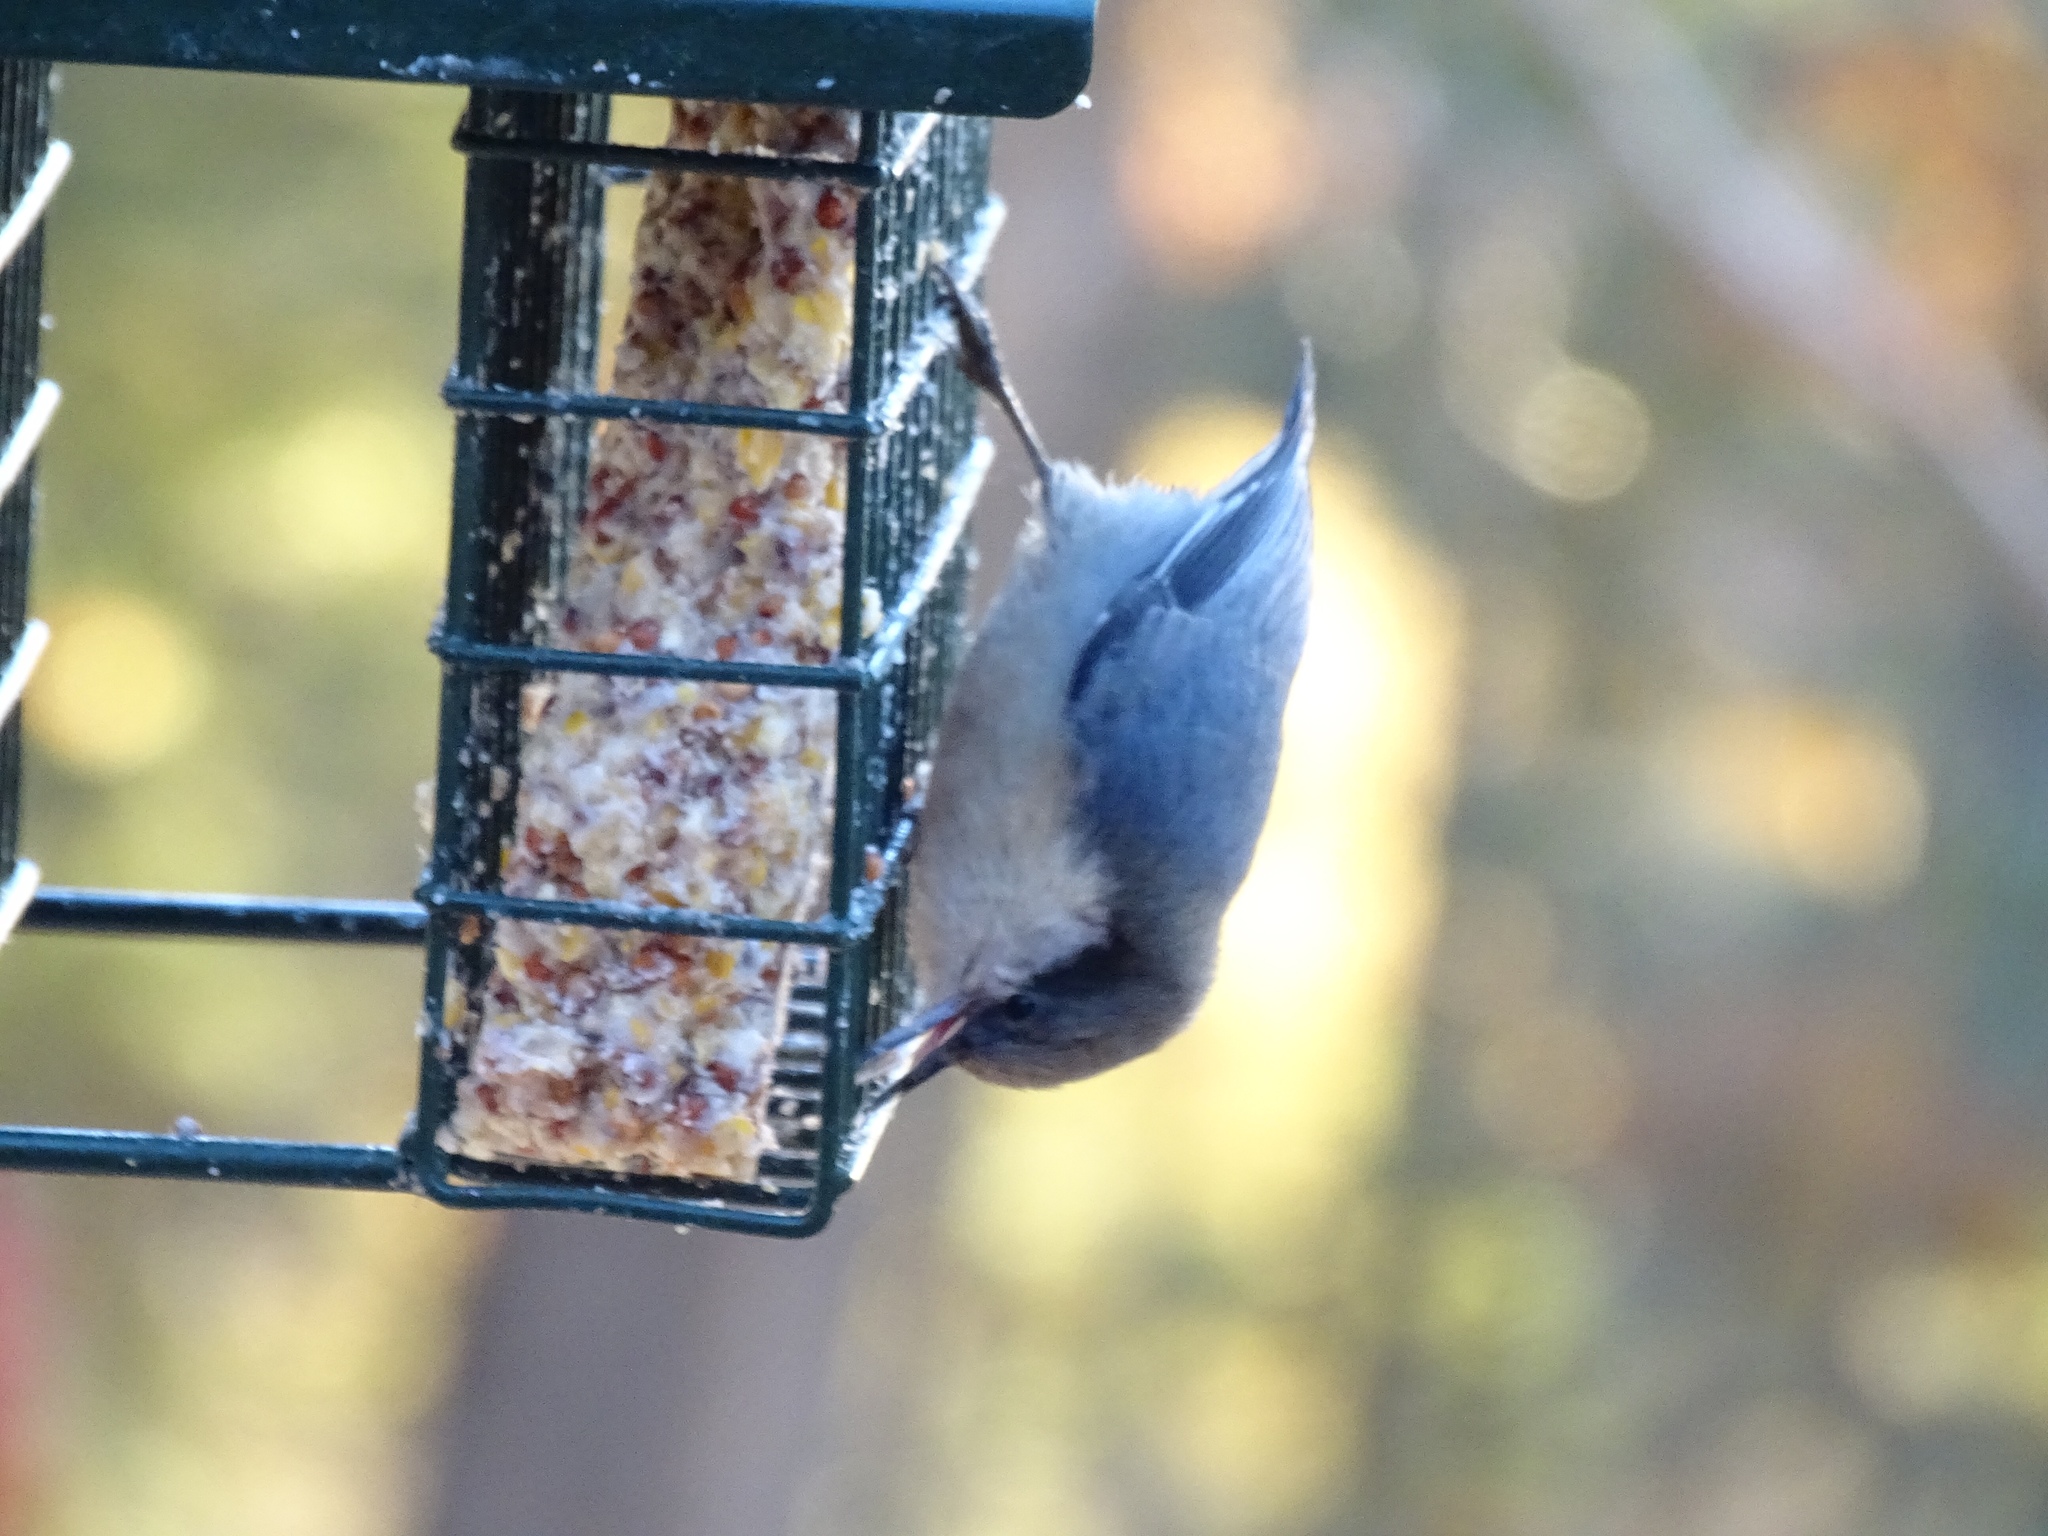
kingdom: Animalia
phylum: Chordata
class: Aves
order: Passeriformes
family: Sittidae
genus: Sitta
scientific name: Sitta pygmaea
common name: Pygmy nuthatch
